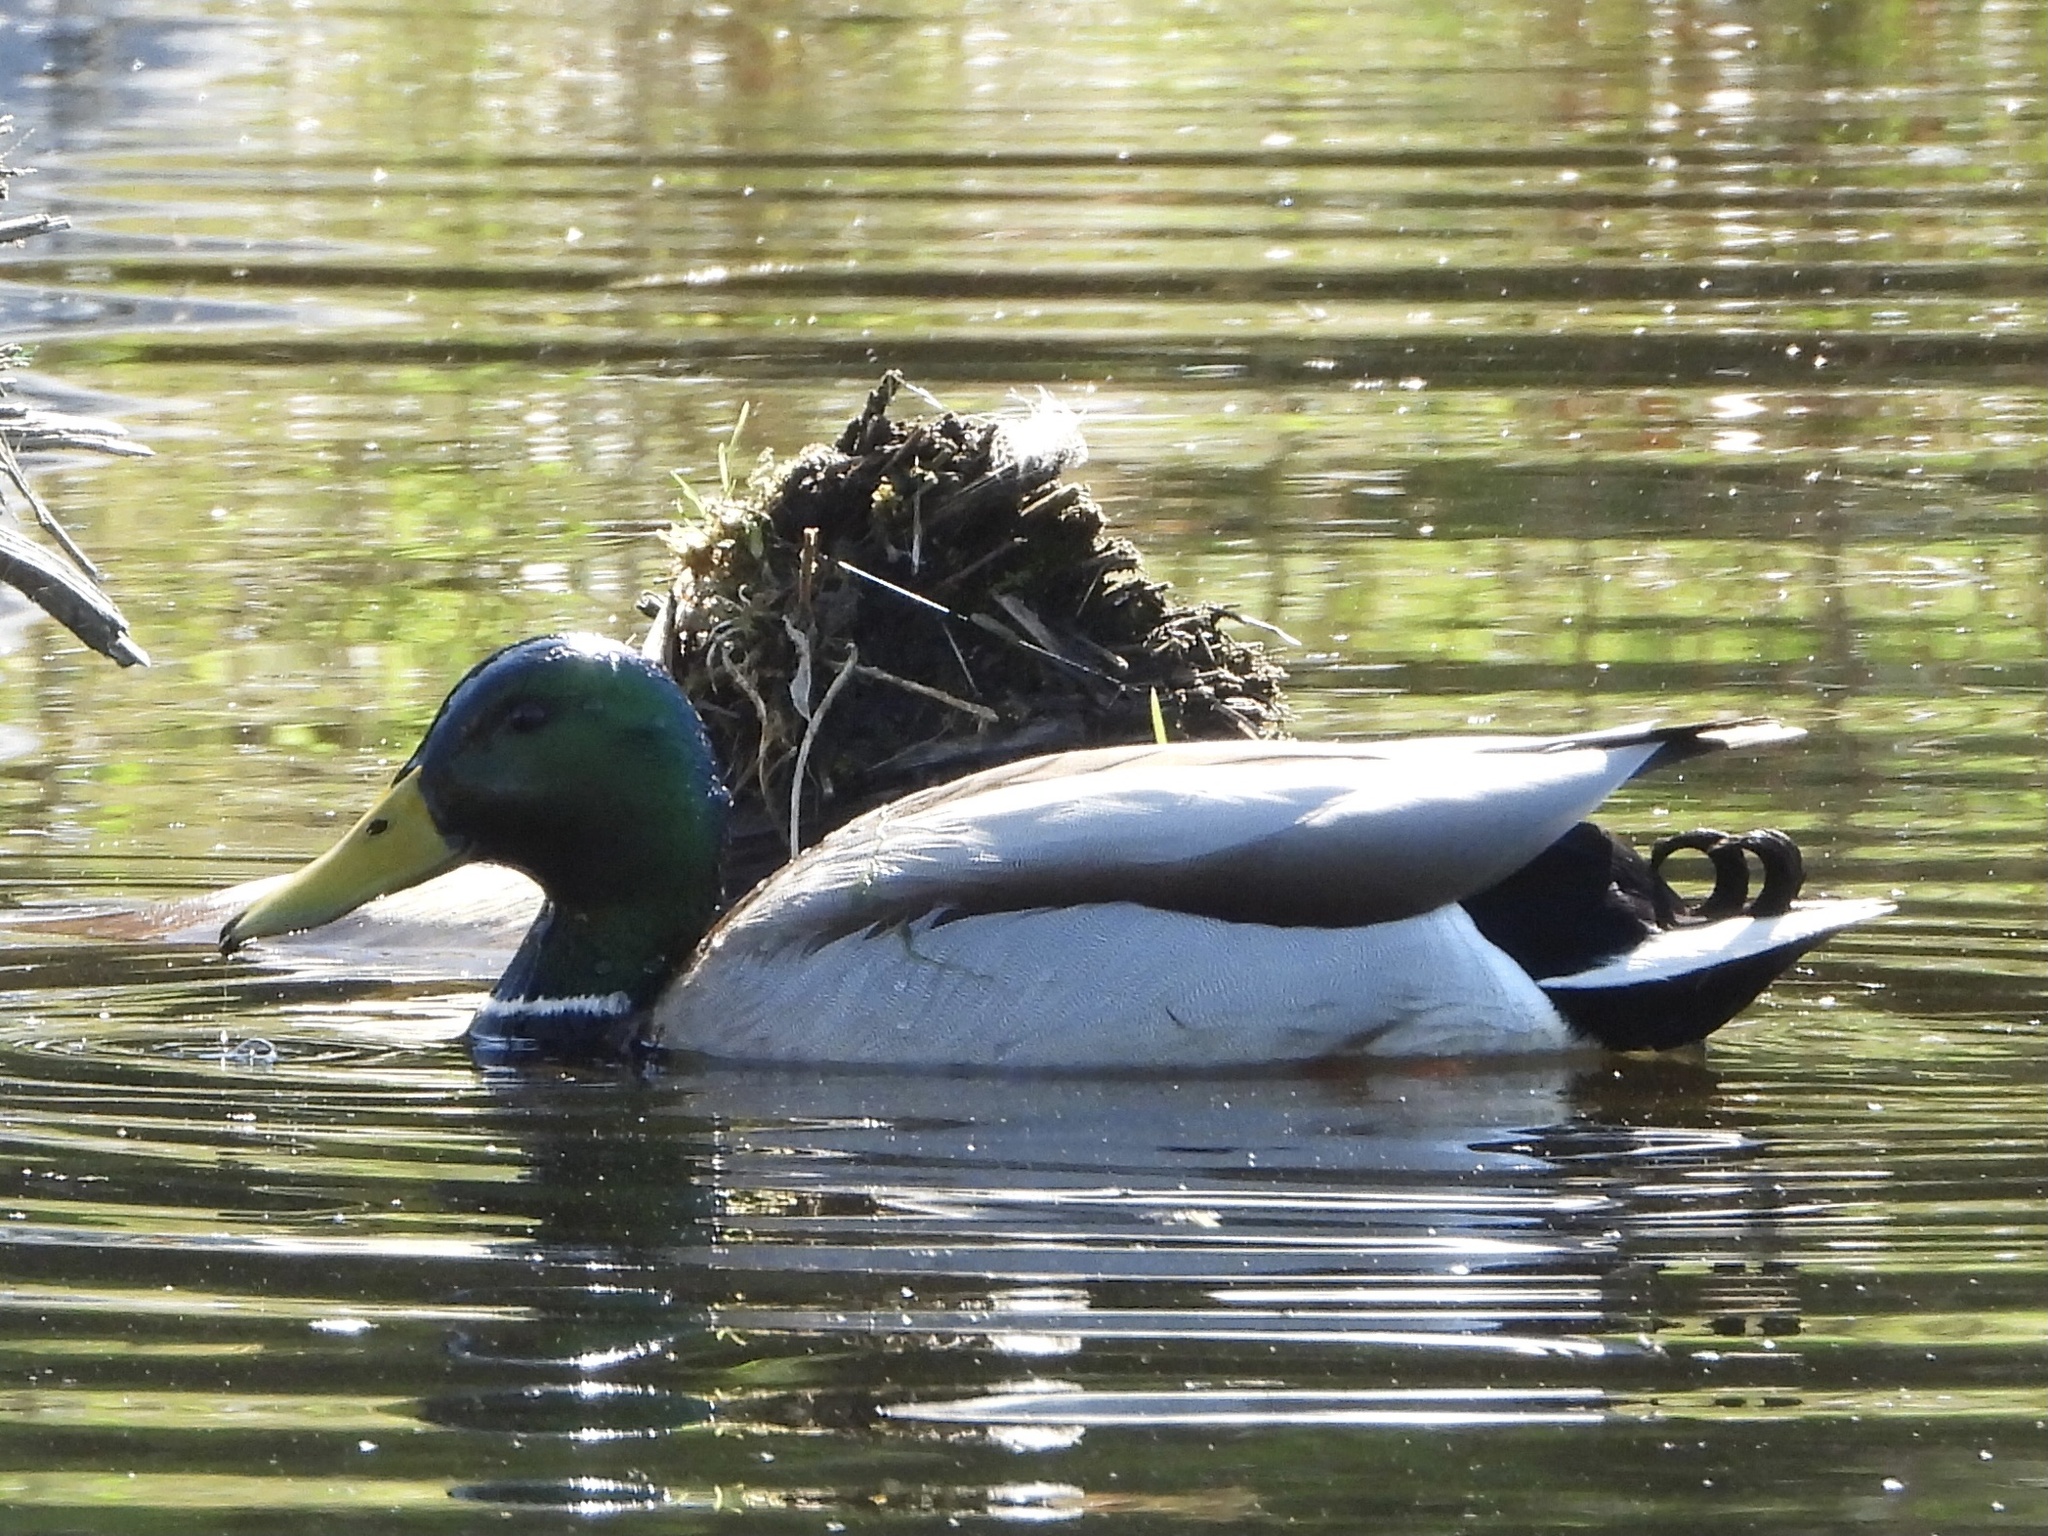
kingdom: Animalia
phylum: Chordata
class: Aves
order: Anseriformes
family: Anatidae
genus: Anas
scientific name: Anas platyrhynchos
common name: Mallard
